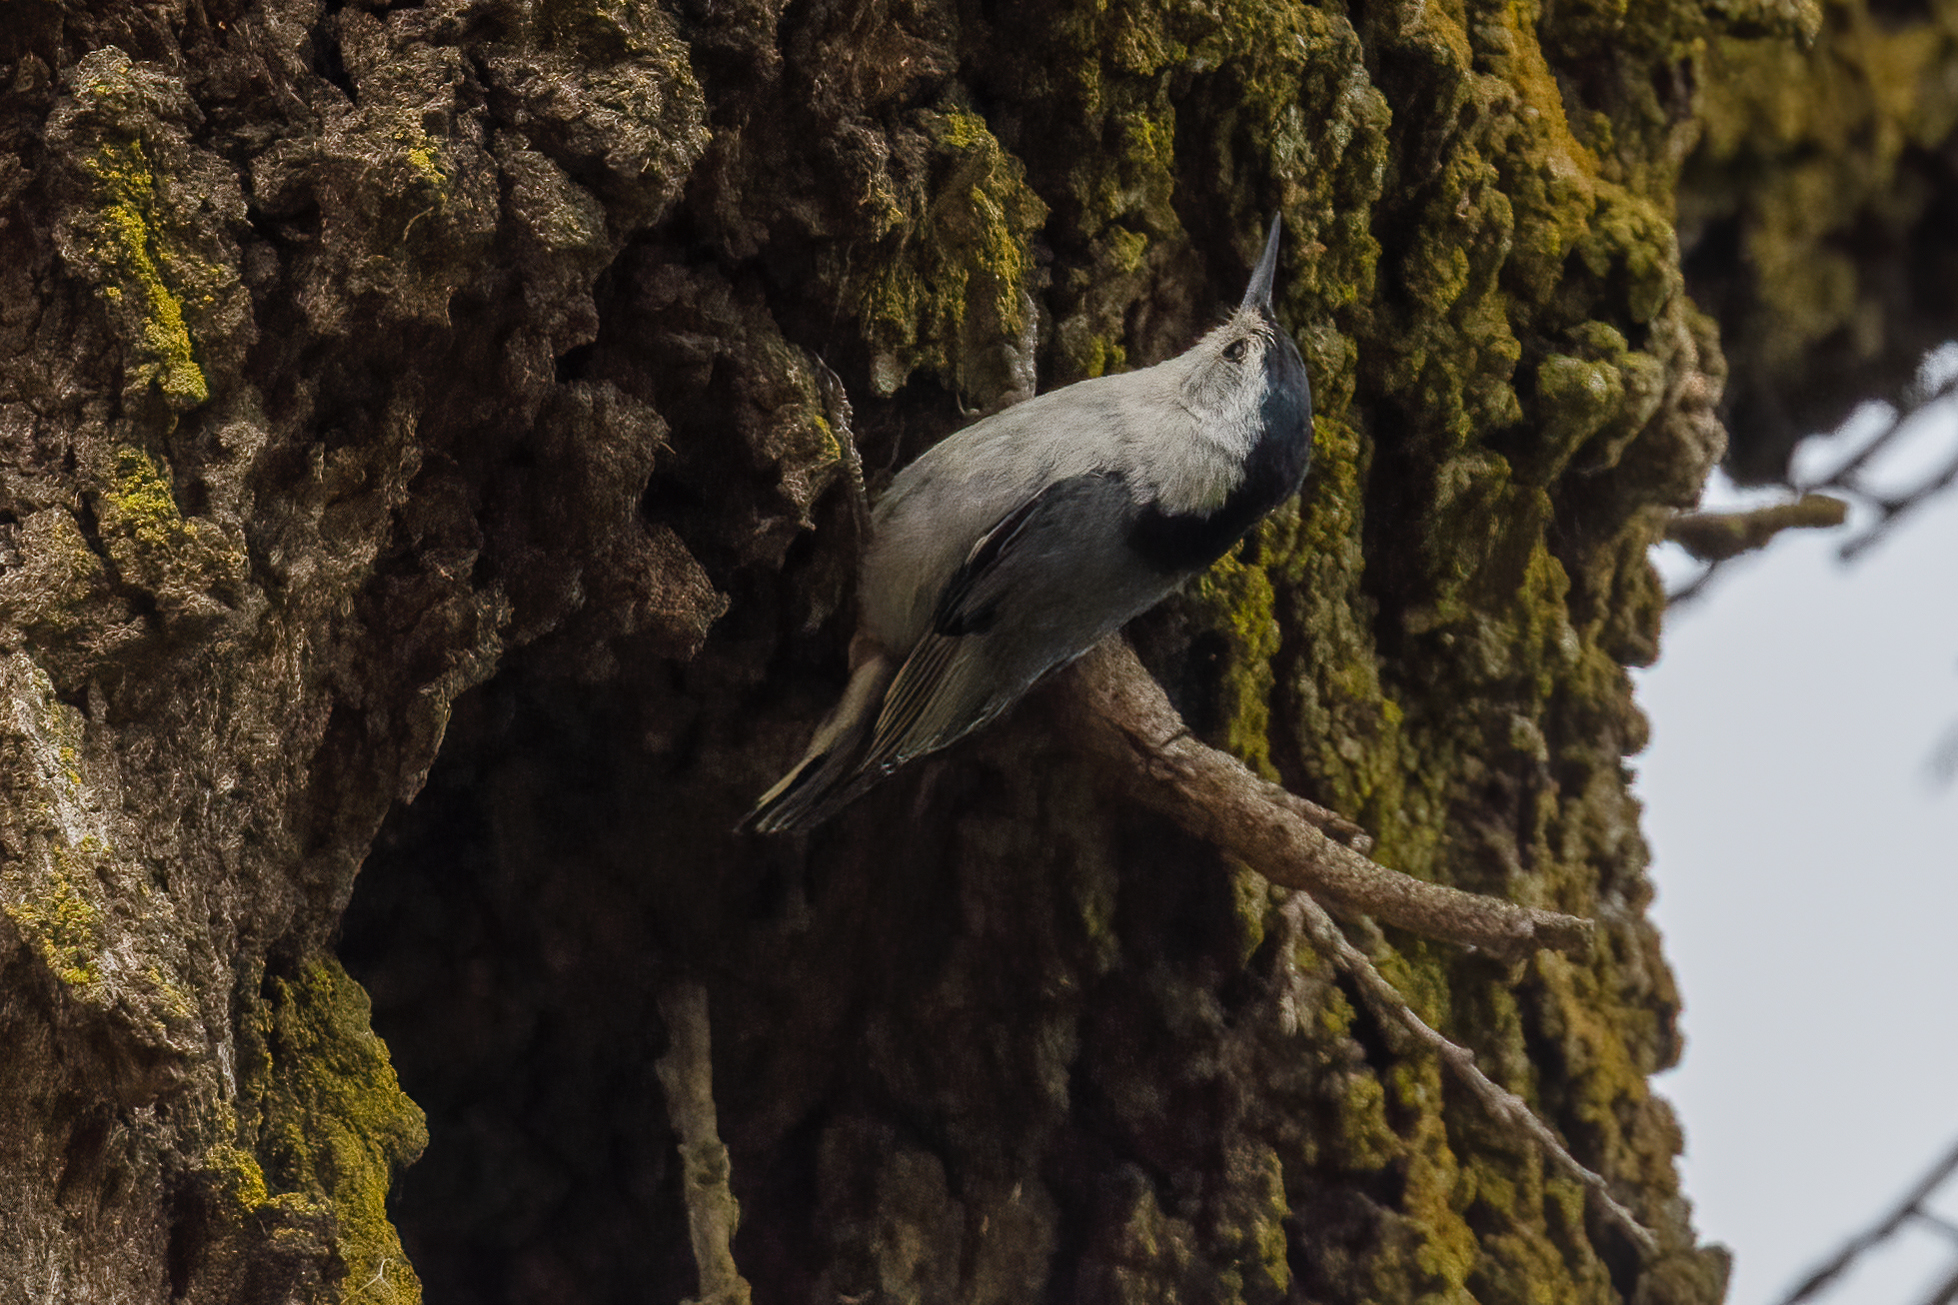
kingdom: Animalia
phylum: Chordata
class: Aves
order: Passeriformes
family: Sittidae
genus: Sitta
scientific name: Sitta carolinensis
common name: White-breasted nuthatch
